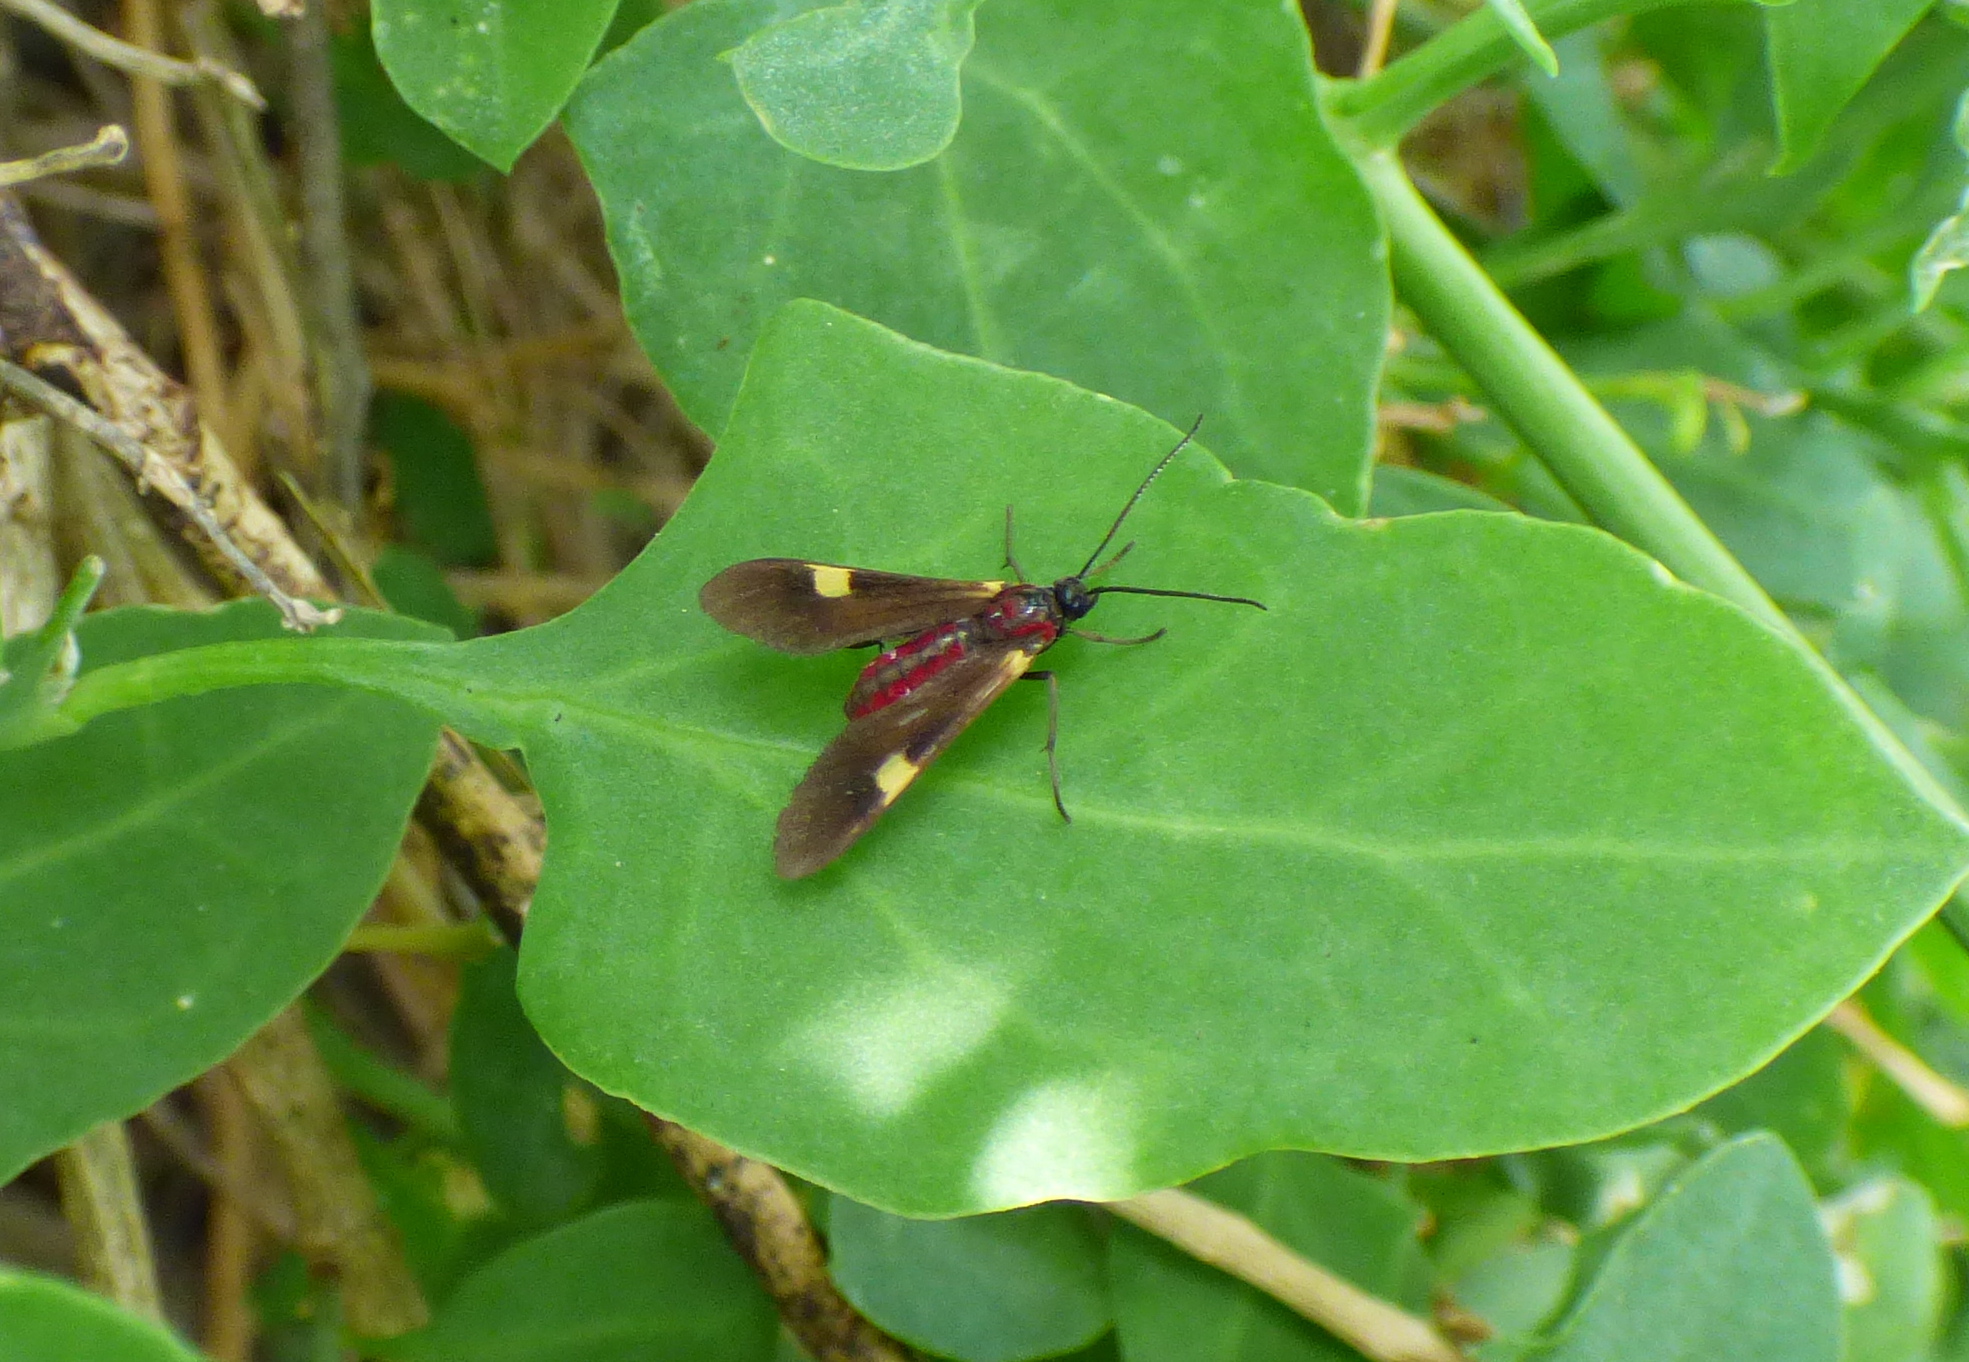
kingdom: Animalia
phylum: Arthropoda
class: Insecta
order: Lepidoptera
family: Erebidae
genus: Rhynchopyga
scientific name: Rhynchopyga meisteri
